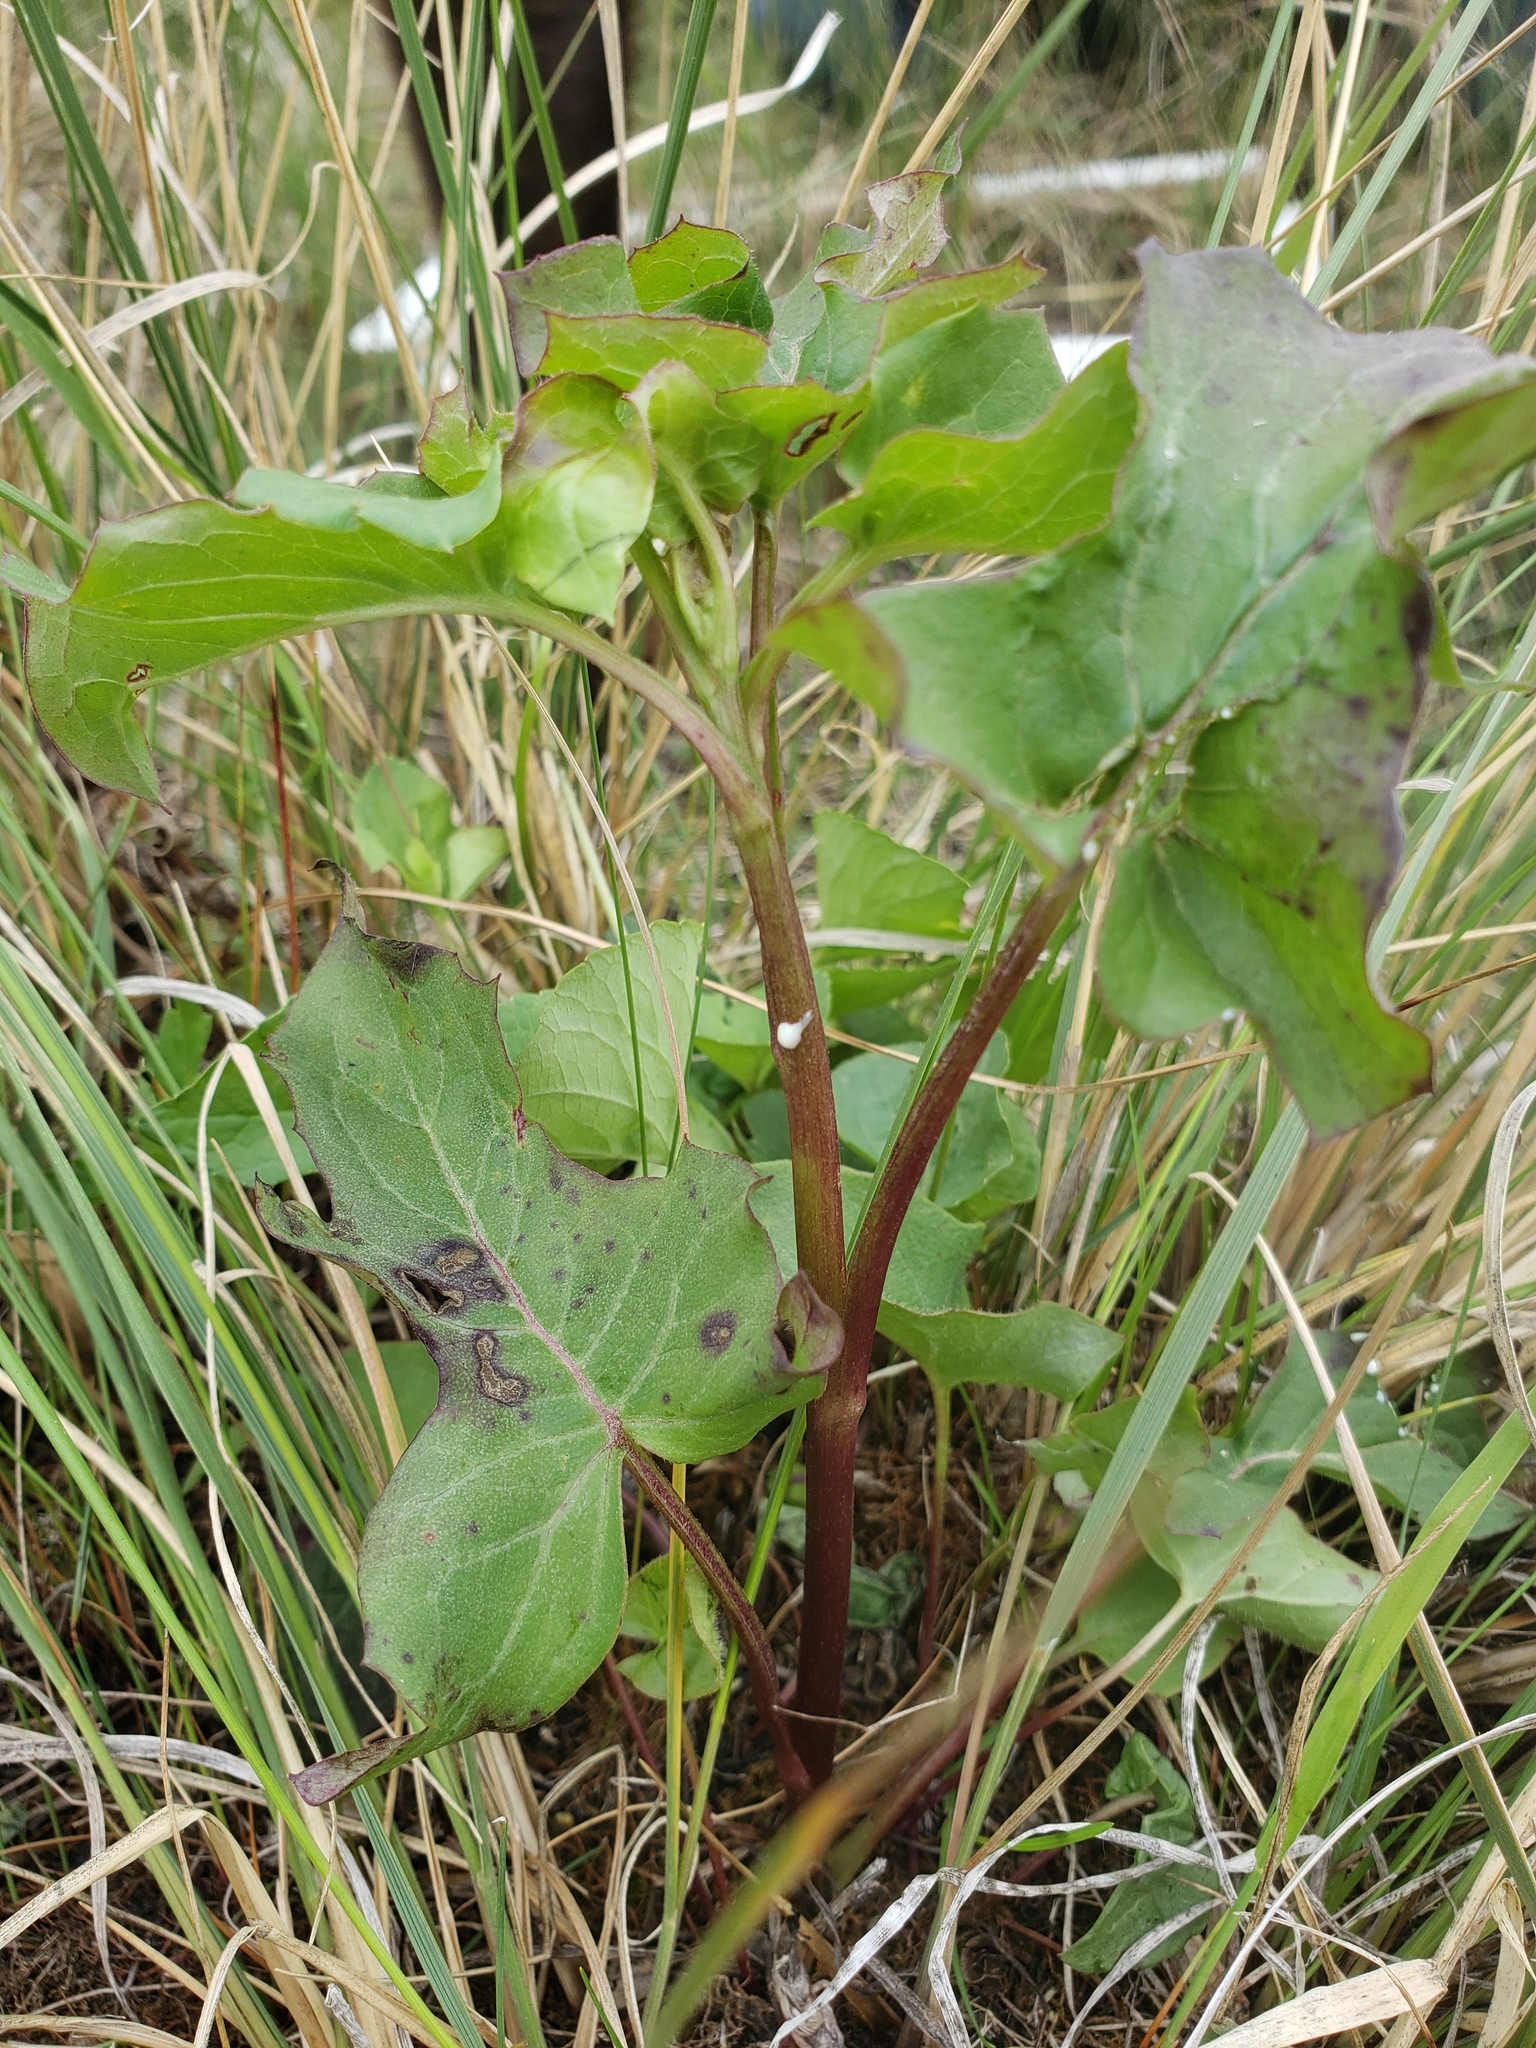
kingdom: Plantae
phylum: Tracheophyta
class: Magnoliopsida
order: Asterales
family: Asteraceae
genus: Nabalus
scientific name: Nabalus albus
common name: White rattlesnakeroot
